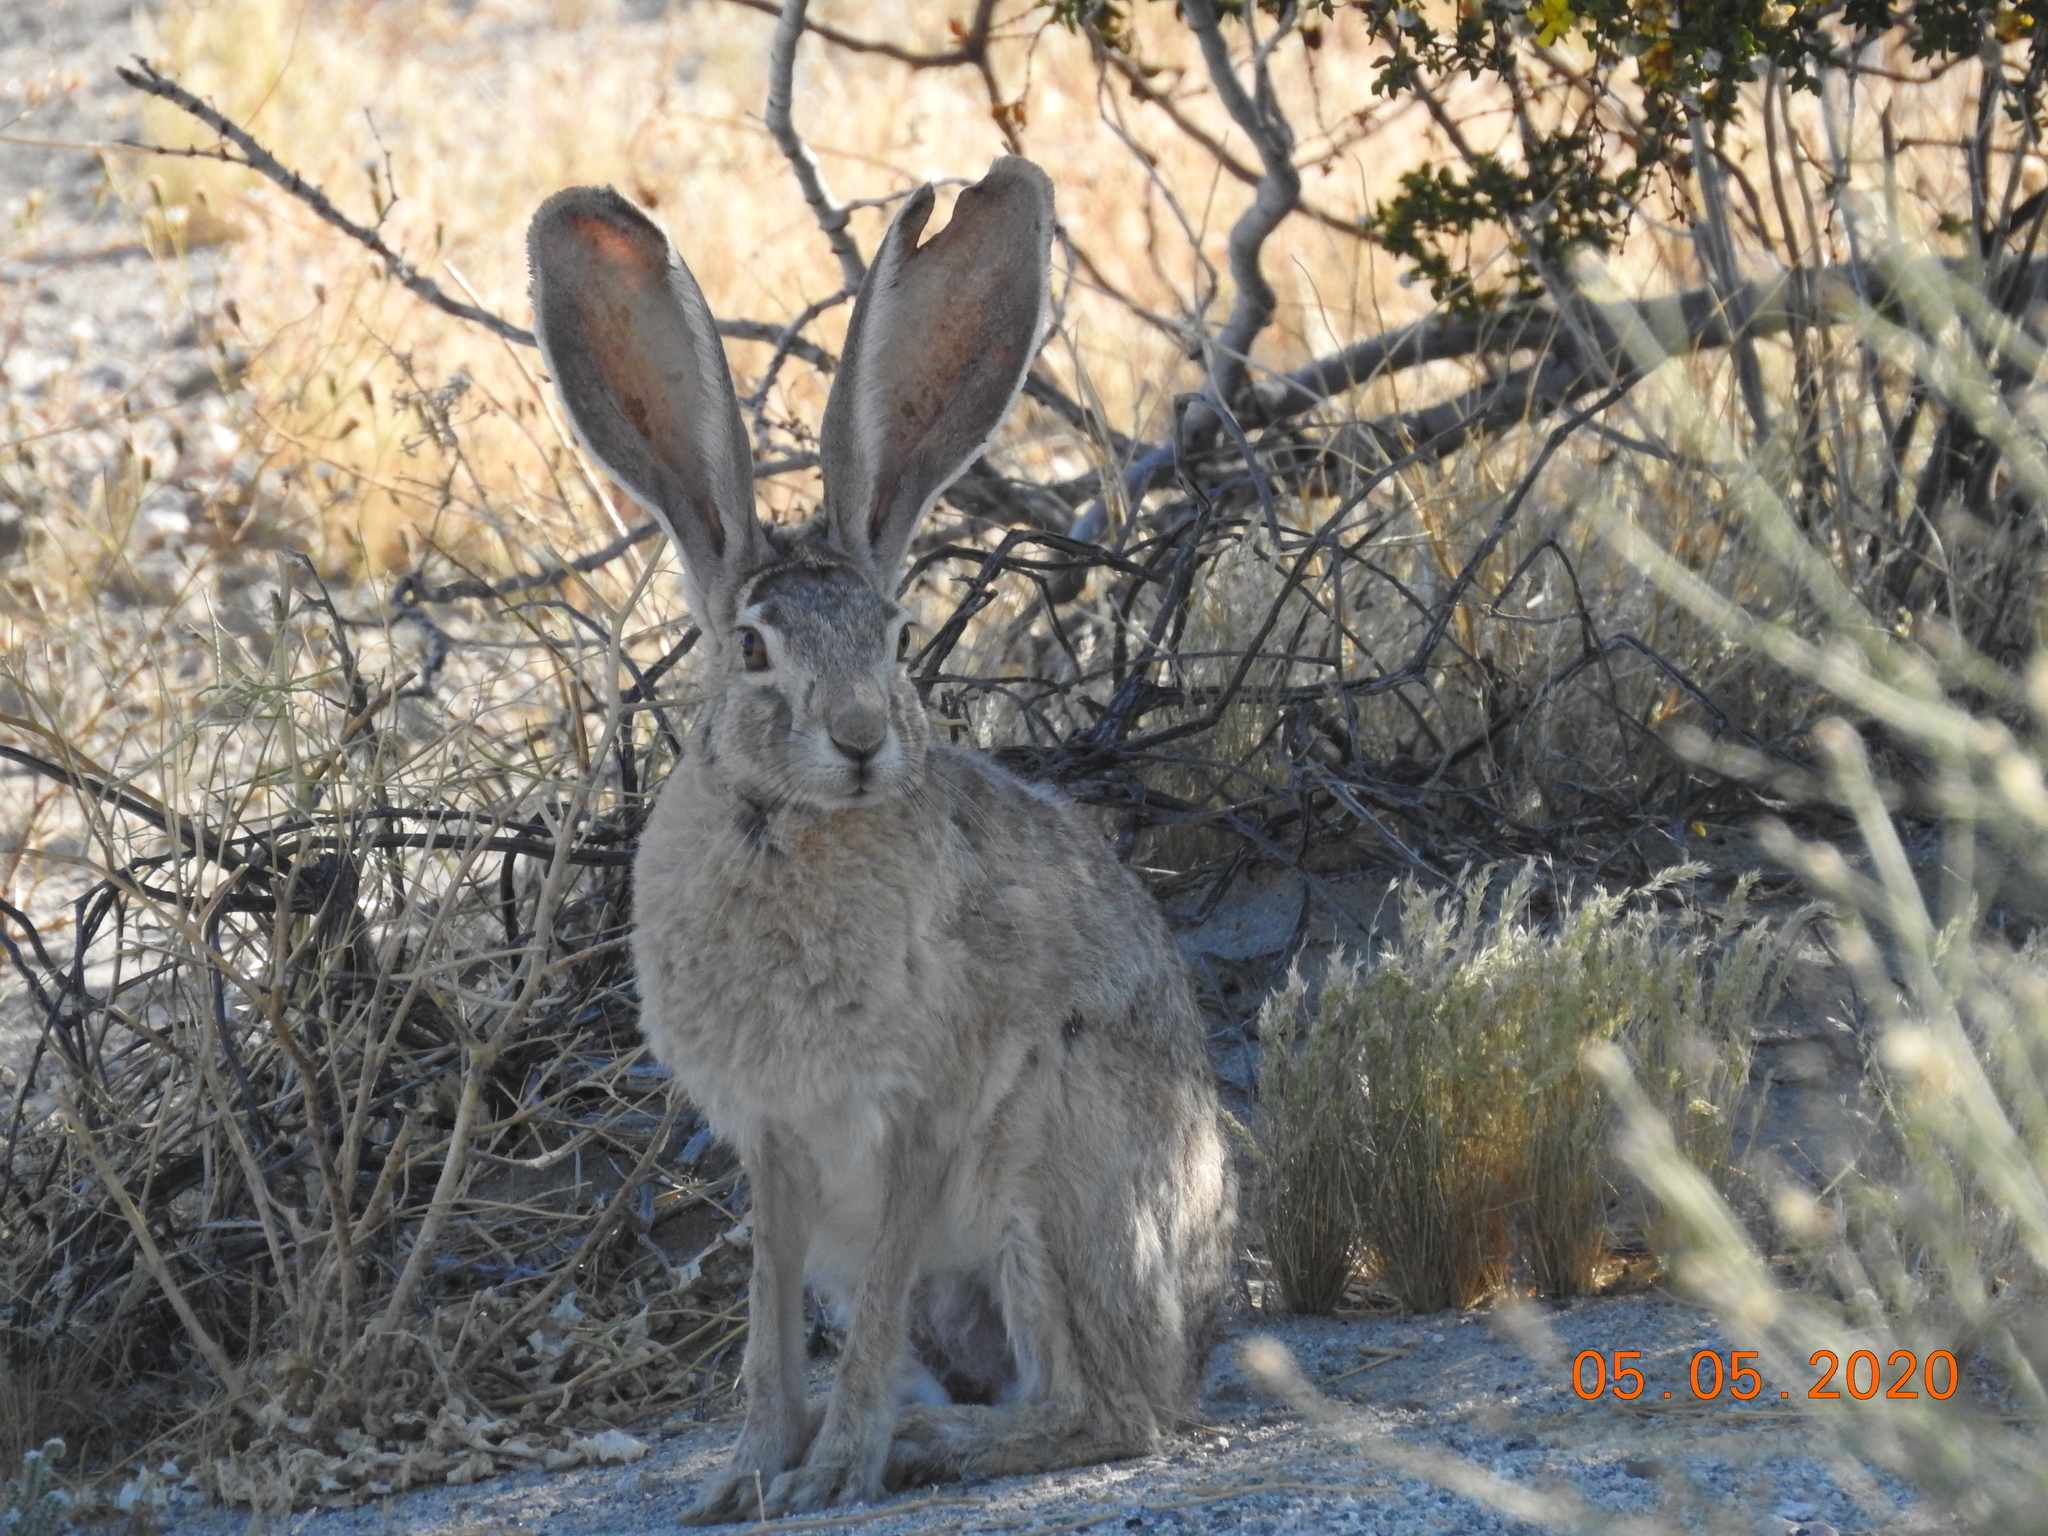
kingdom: Animalia
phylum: Chordata
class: Mammalia
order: Lagomorpha
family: Leporidae
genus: Lepus
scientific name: Lepus californicus
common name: Black-tailed jackrabbit
